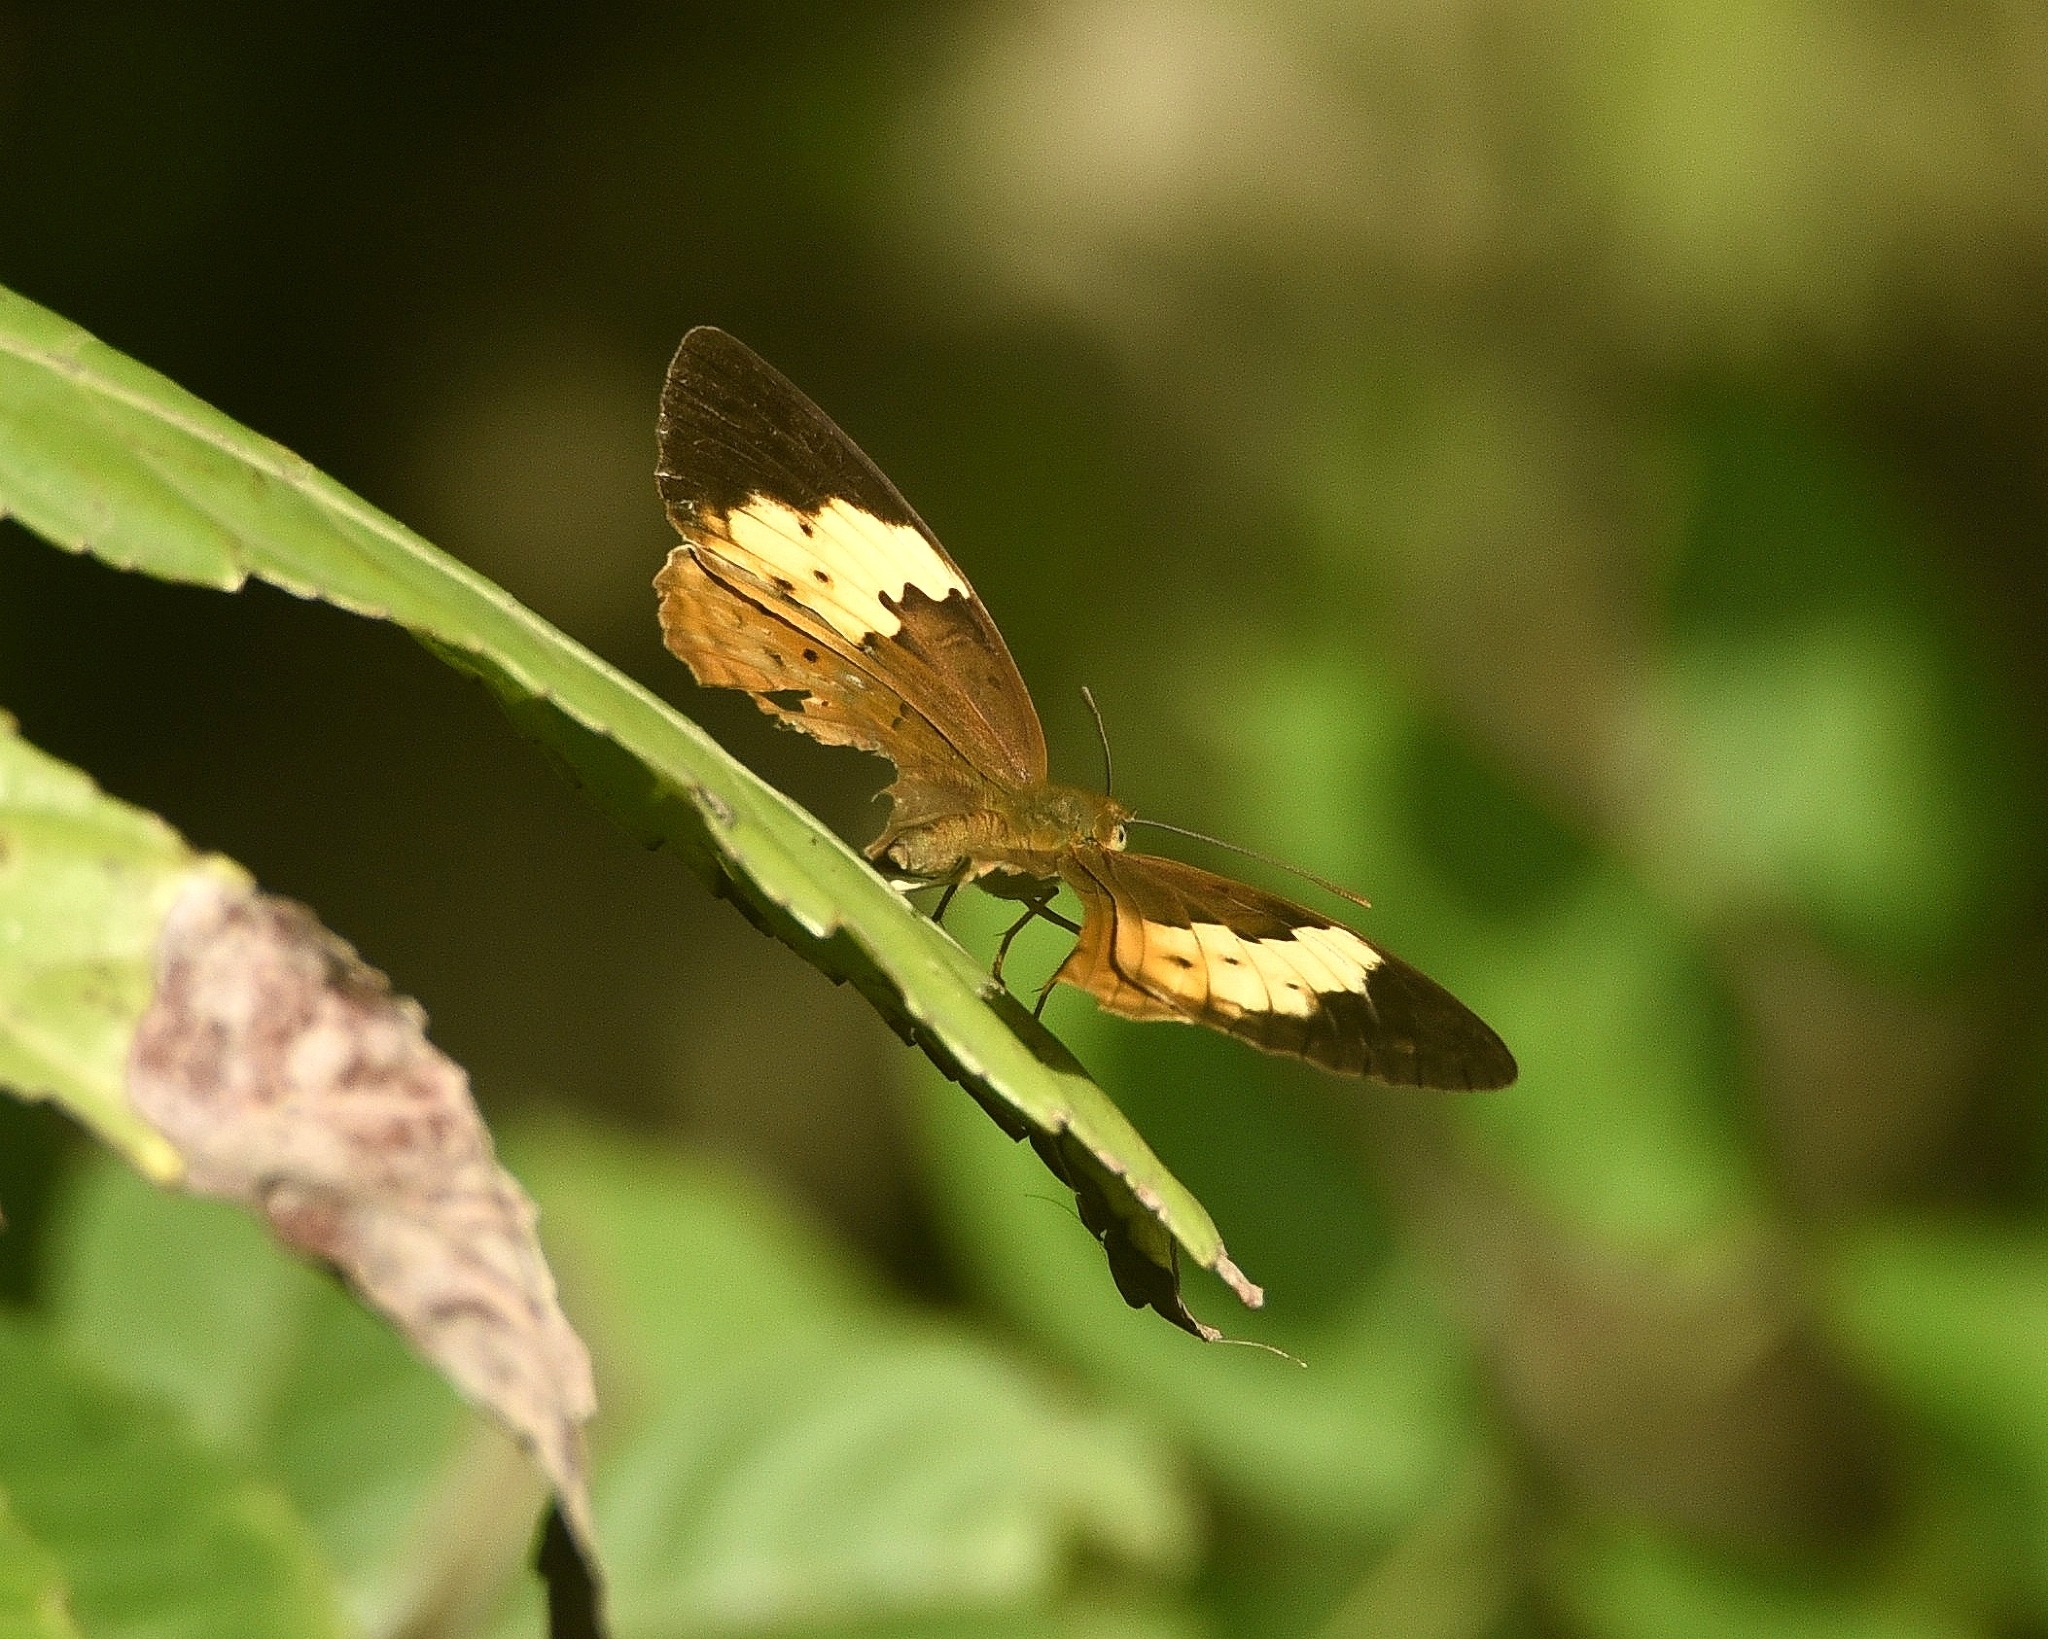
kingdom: Animalia
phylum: Arthropoda
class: Insecta
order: Lepidoptera
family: Nymphalidae
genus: Cupha
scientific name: Cupha erymanthis
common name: Rustic
